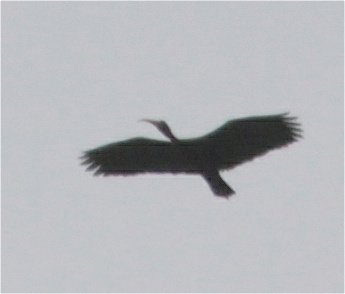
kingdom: Animalia
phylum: Chordata
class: Aves
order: Pelecaniformes
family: Threskiornithidae
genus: Phimosus
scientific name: Phimosus infuscatus
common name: Bare-faced ibis
